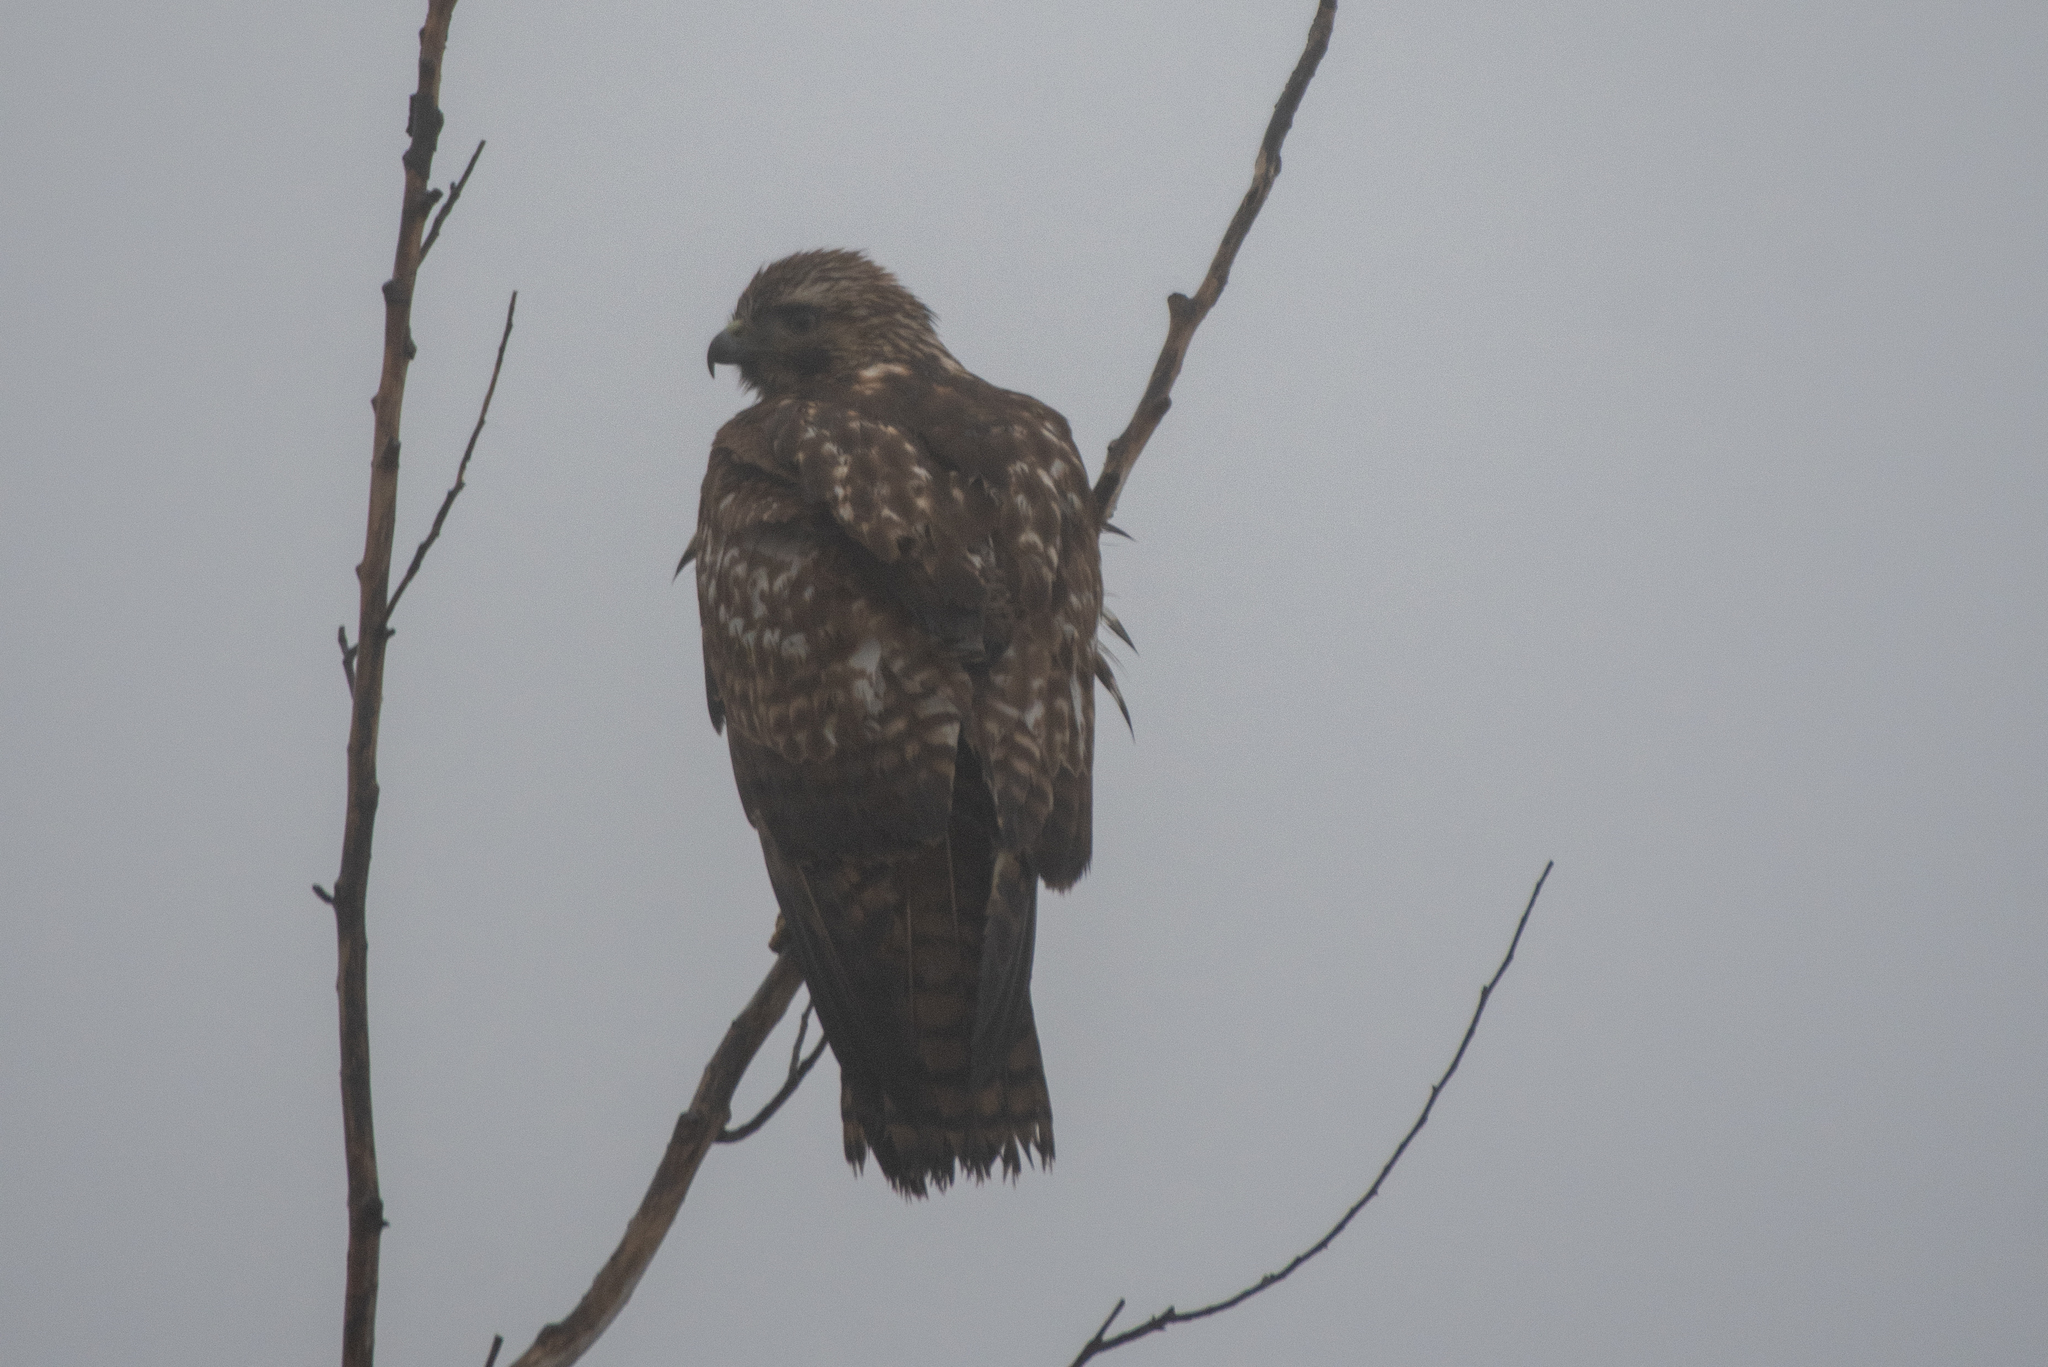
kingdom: Animalia
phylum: Chordata
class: Aves
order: Accipitriformes
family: Accipitridae
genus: Buteo
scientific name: Buteo jamaicensis
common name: Red-tailed hawk
